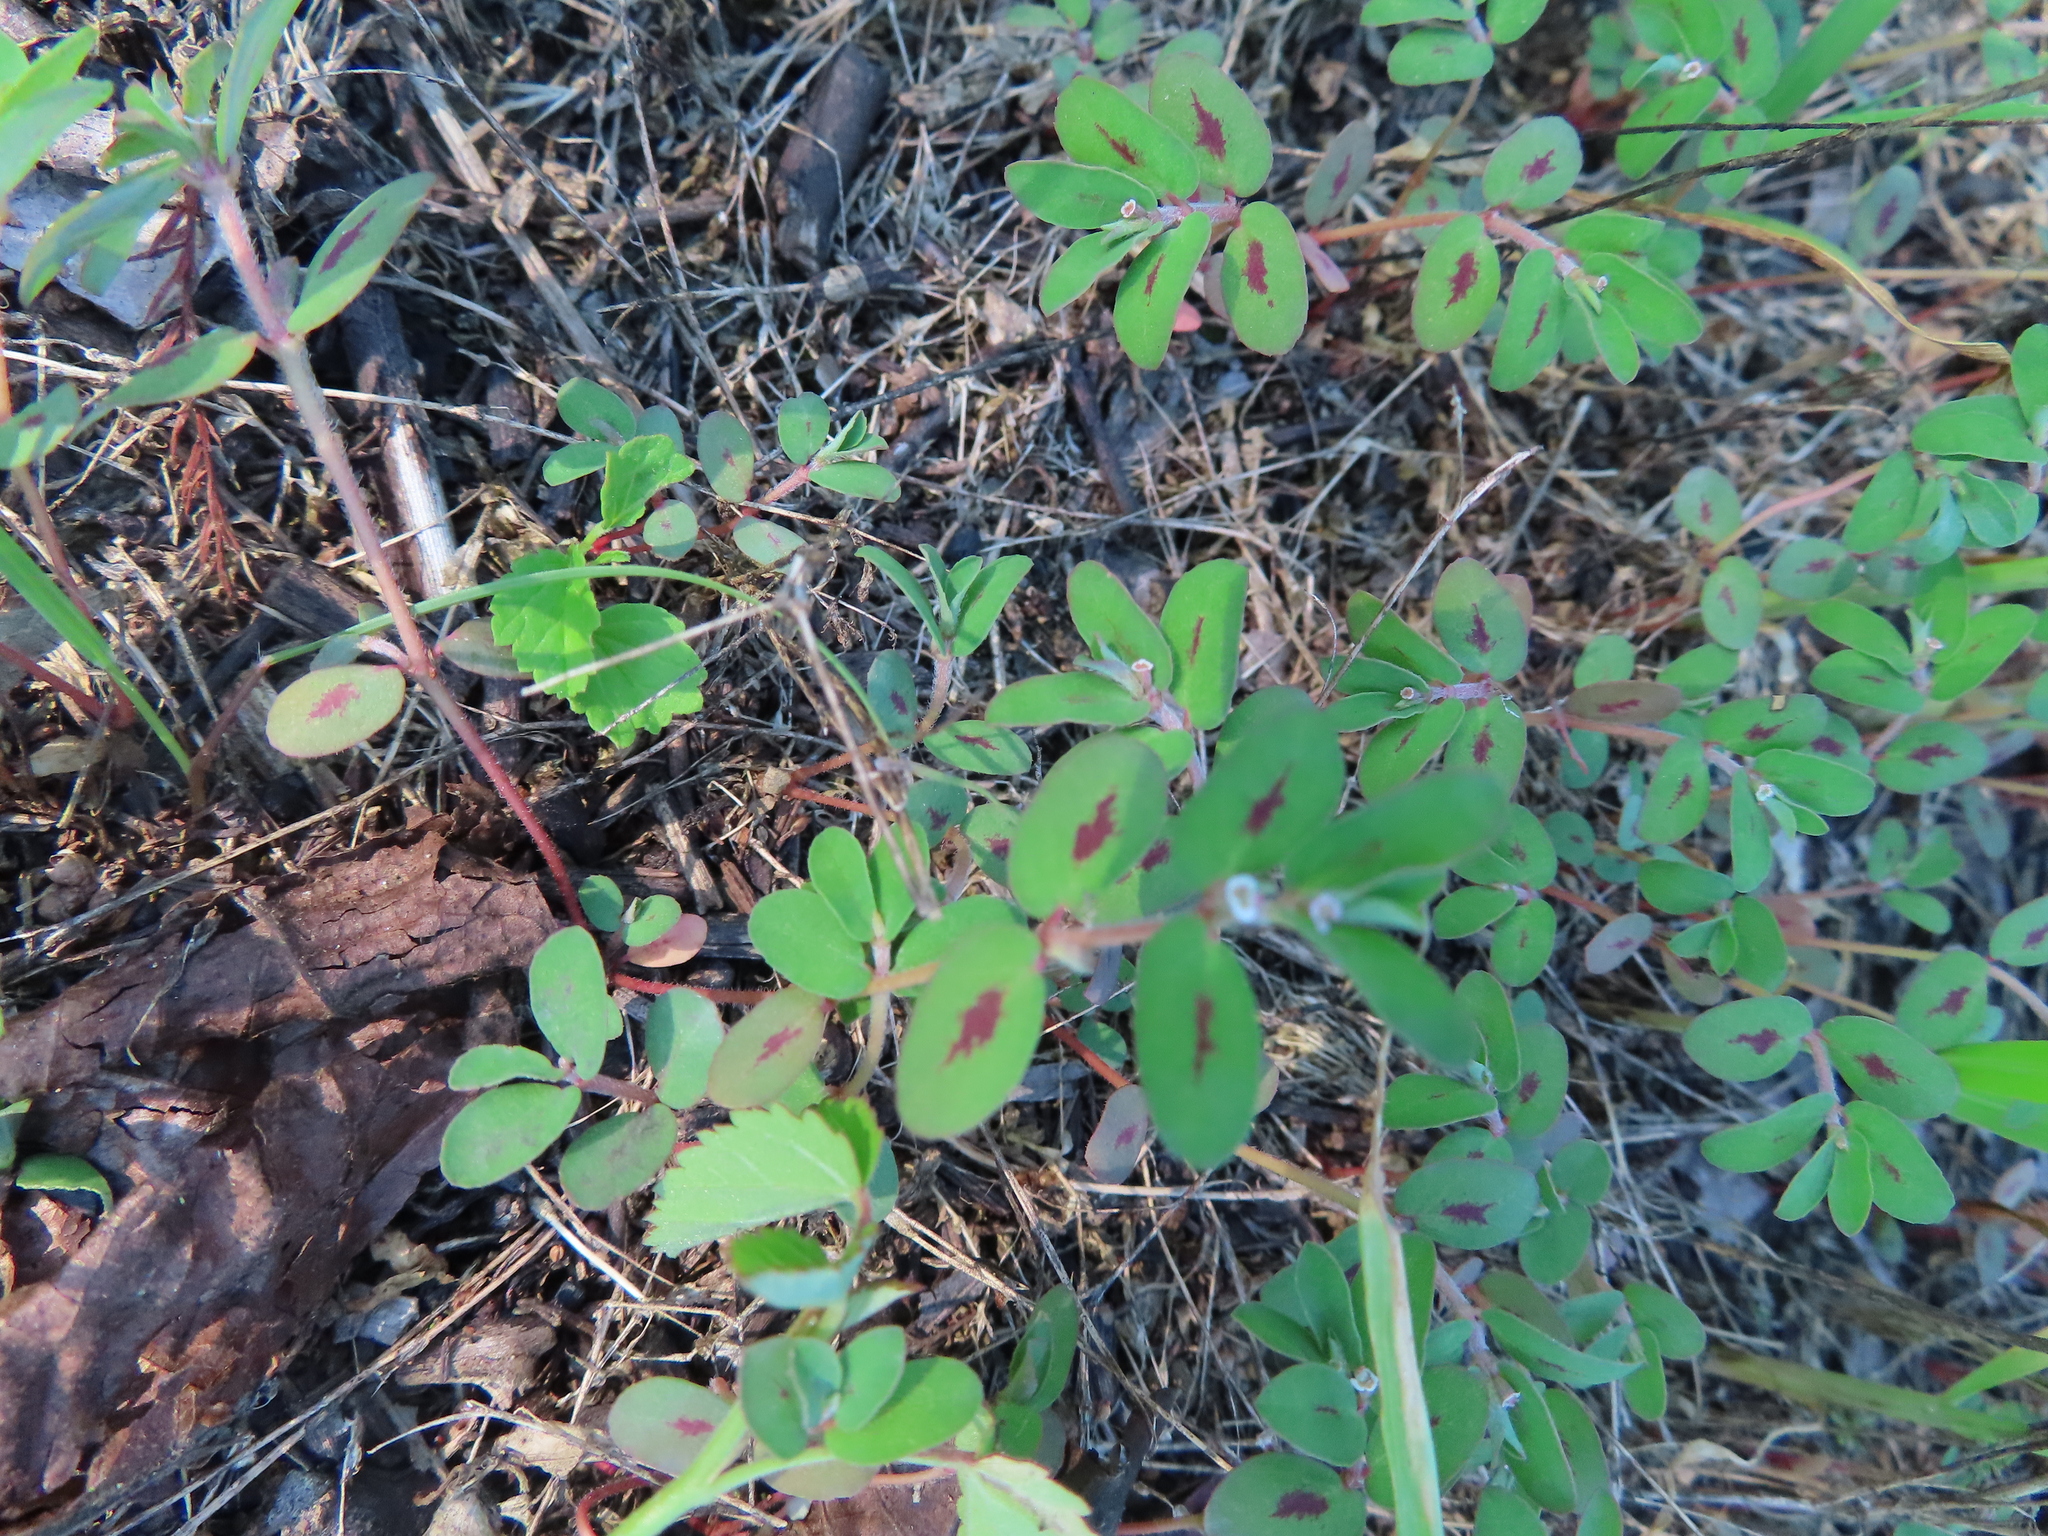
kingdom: Plantae
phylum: Tracheophyta
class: Magnoliopsida
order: Malpighiales
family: Euphorbiaceae
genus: Euphorbia
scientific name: Euphorbia humistrata
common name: Hairy spreading spurge
